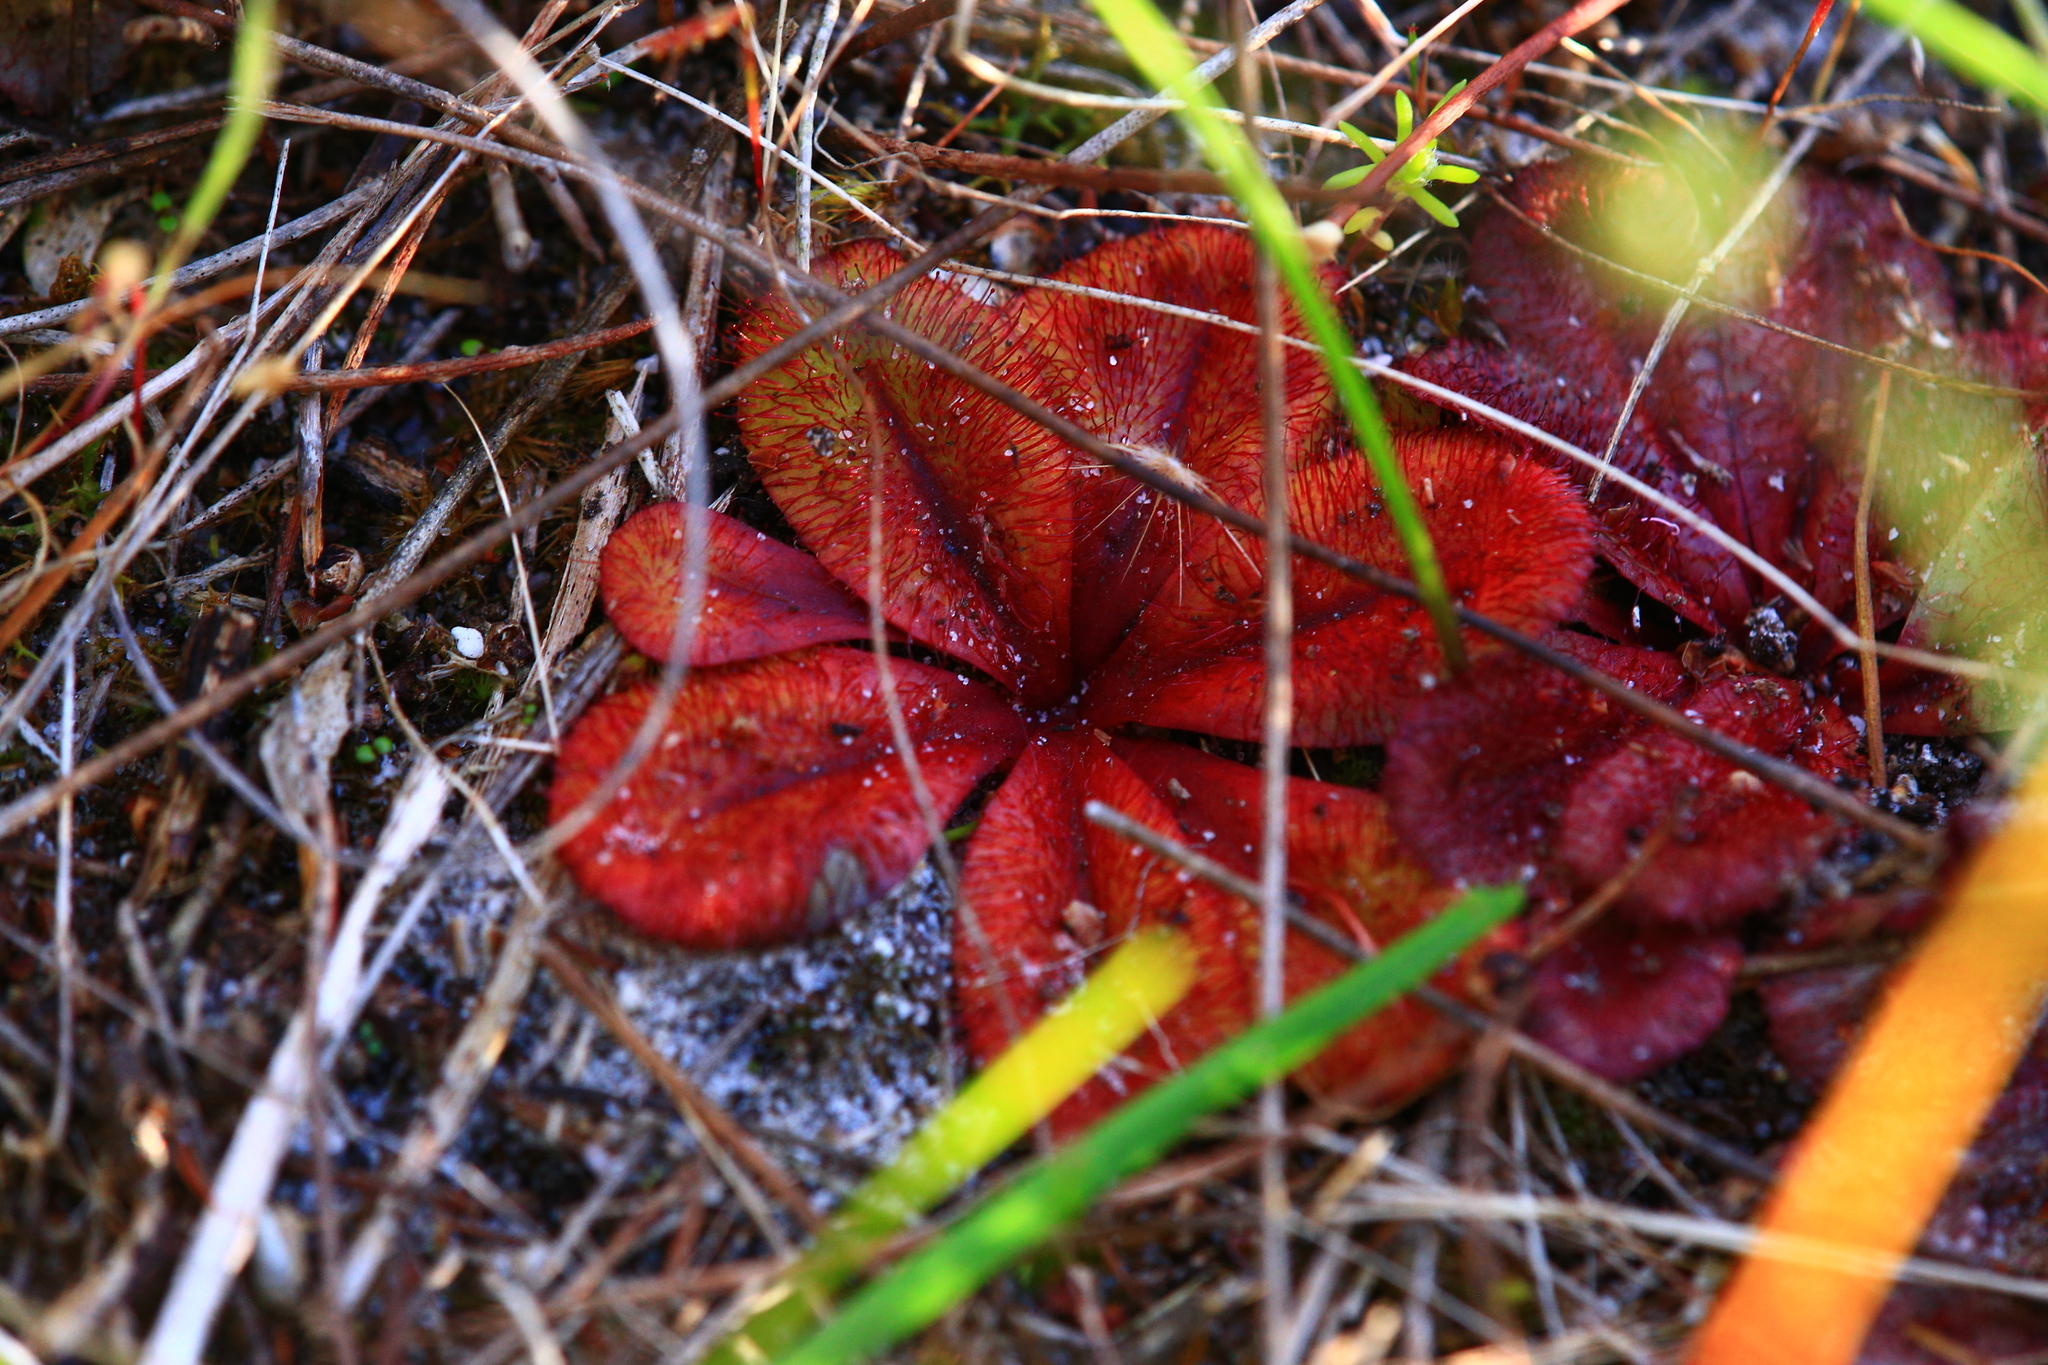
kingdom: Plantae
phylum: Tracheophyta
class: Magnoliopsida
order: Caryophyllales
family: Droseraceae
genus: Drosera
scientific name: Drosera rosulata
